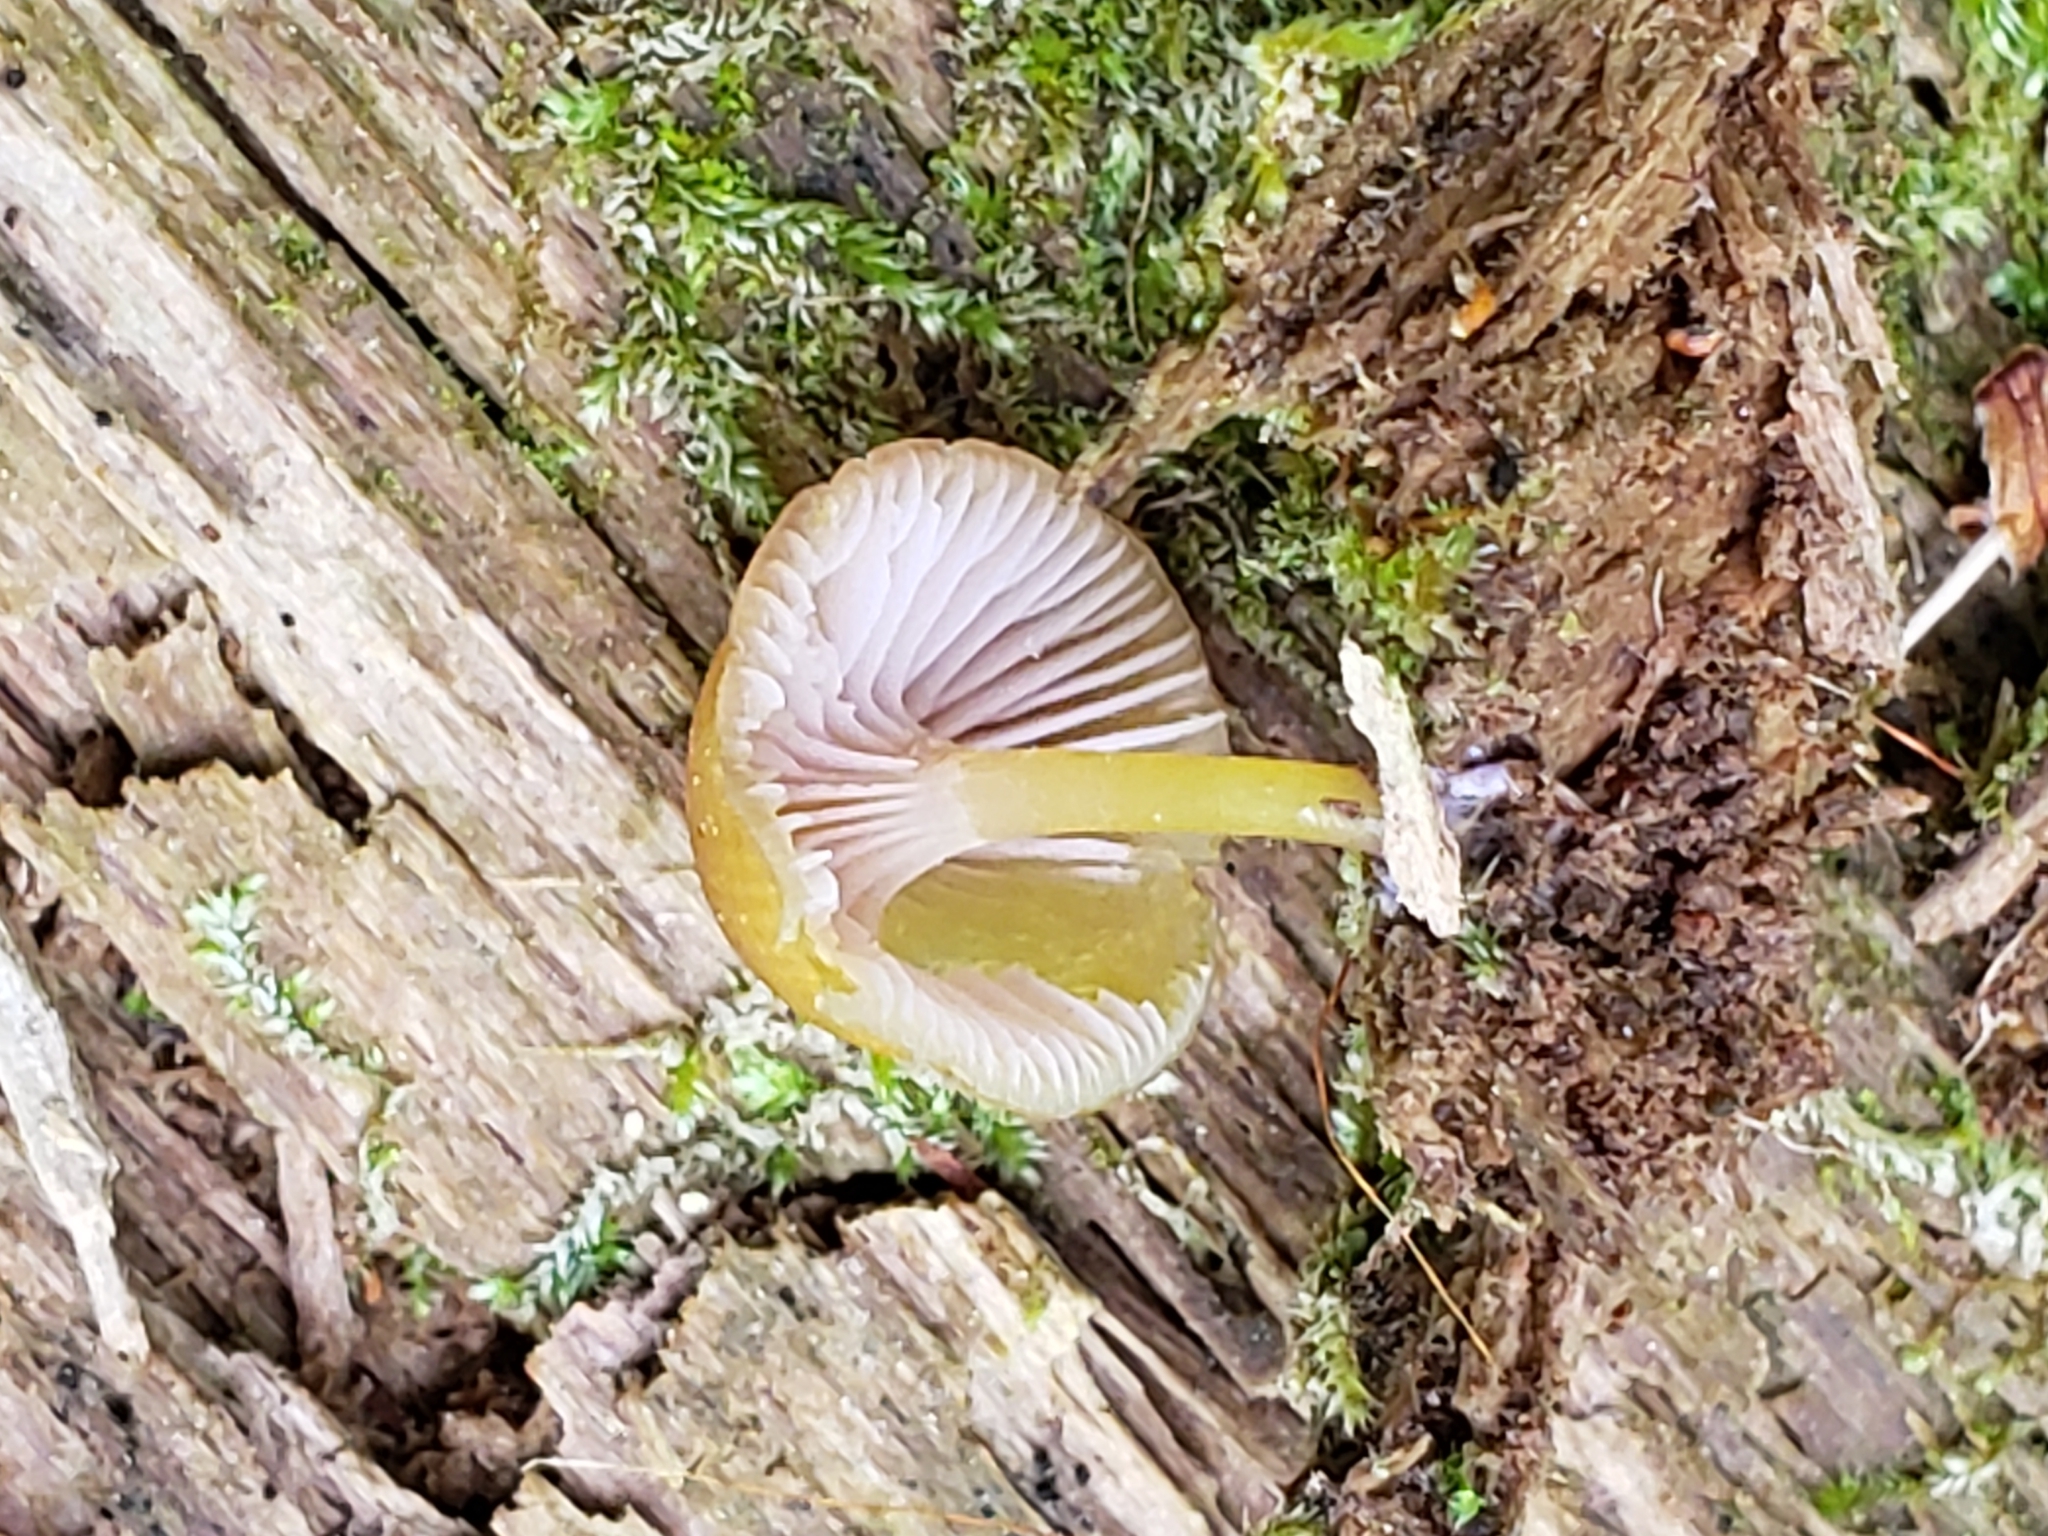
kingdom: Fungi
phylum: Basidiomycota
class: Agaricomycetes
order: Agaricales
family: Hygrophoraceae
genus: Chromosera
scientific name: Chromosera cyanophylla
